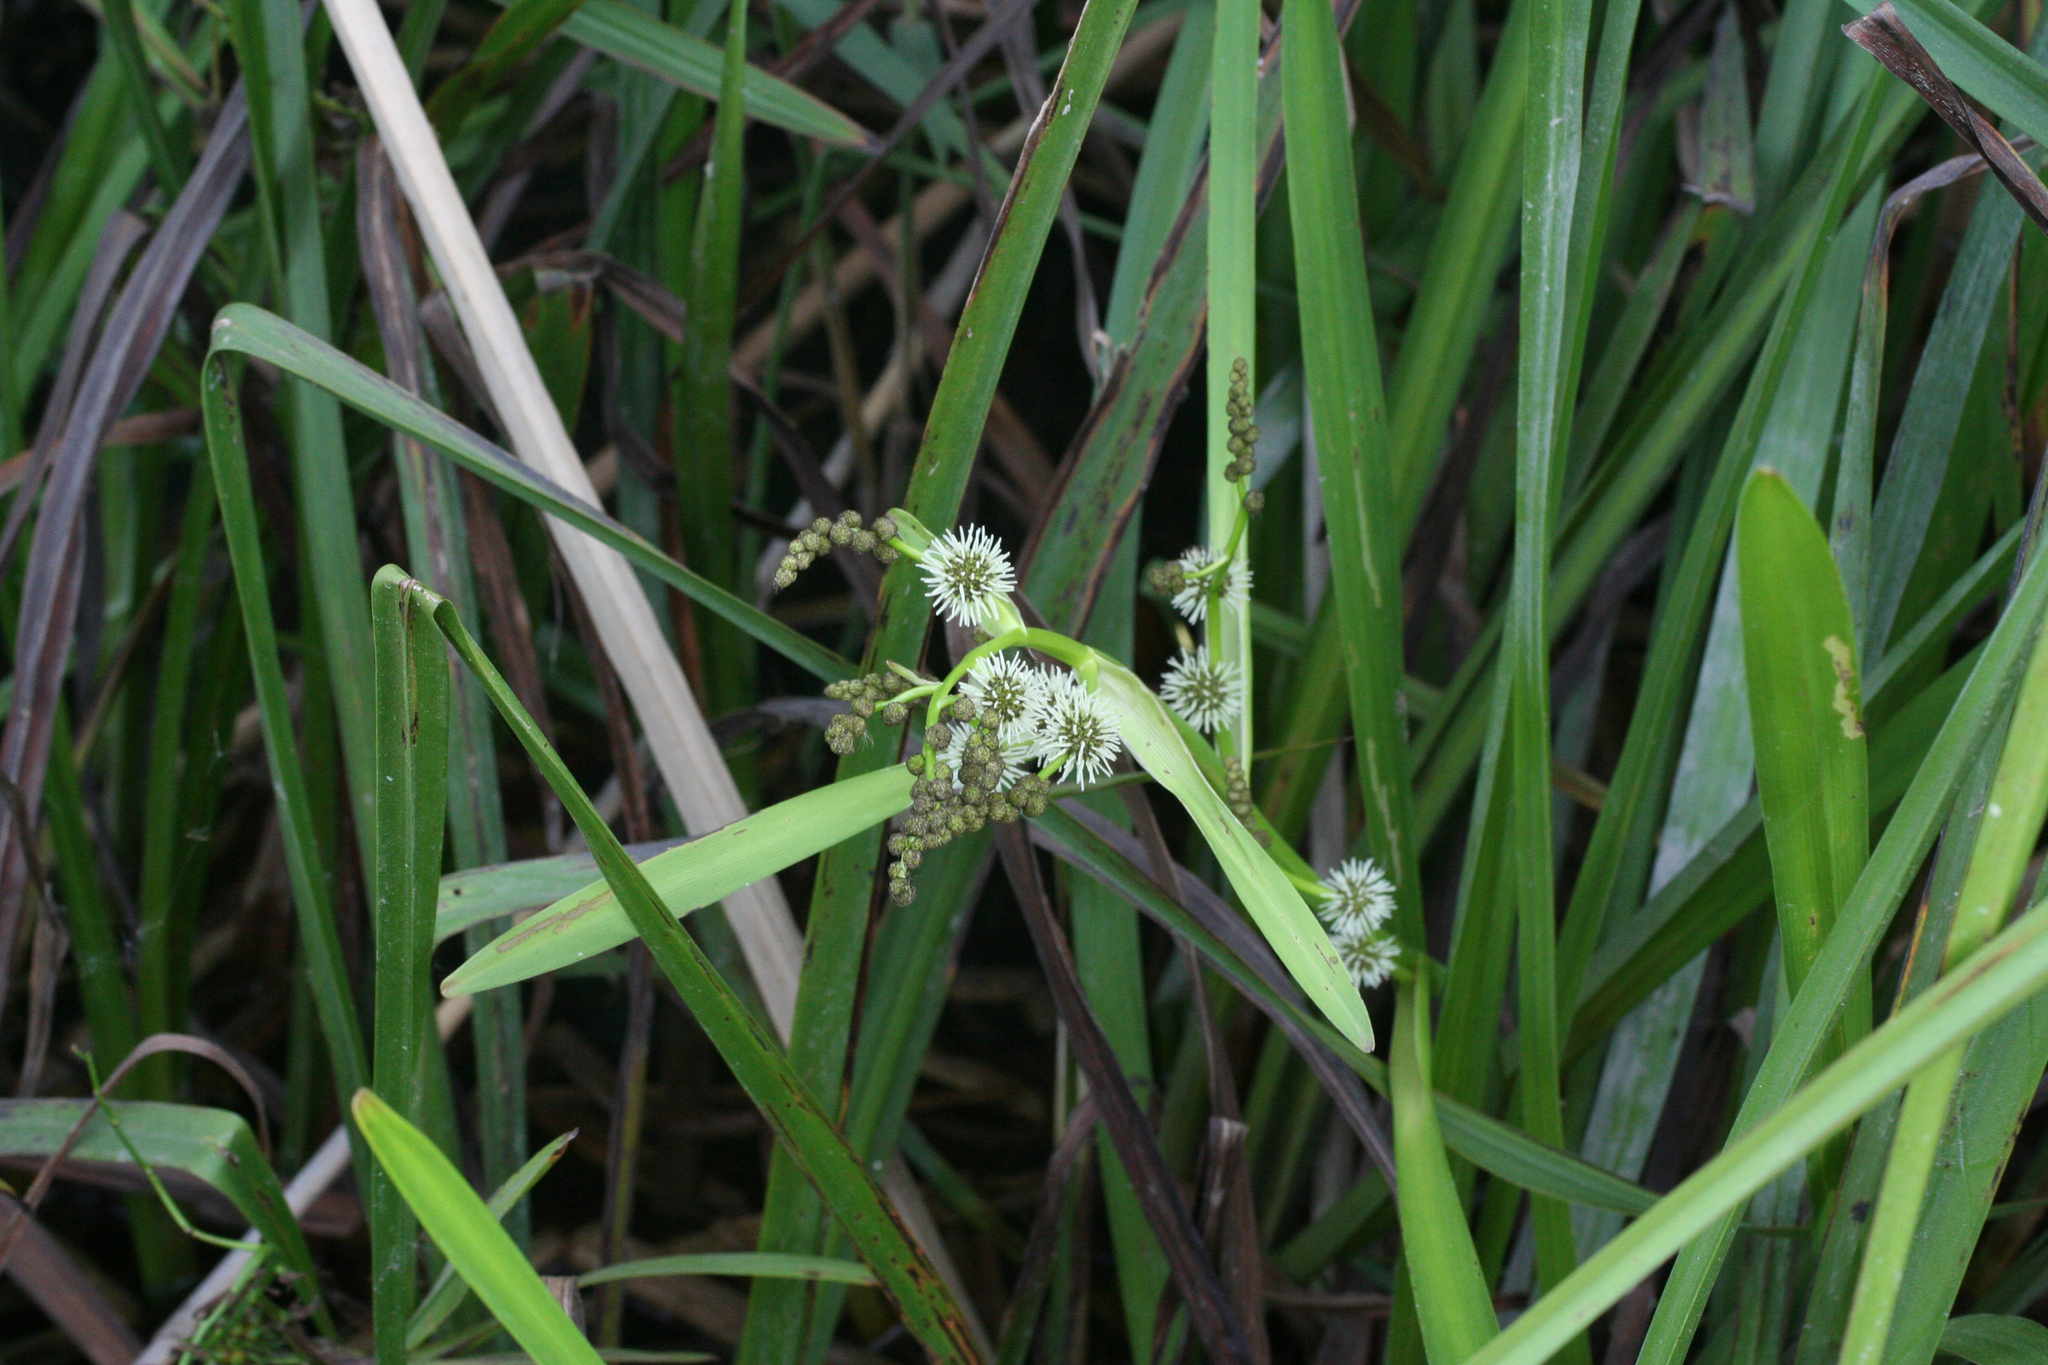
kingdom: Plantae
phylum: Tracheophyta
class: Liliopsida
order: Poales
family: Typhaceae
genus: Sparganium
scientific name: Sparganium erectum
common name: Branched bur-reed
